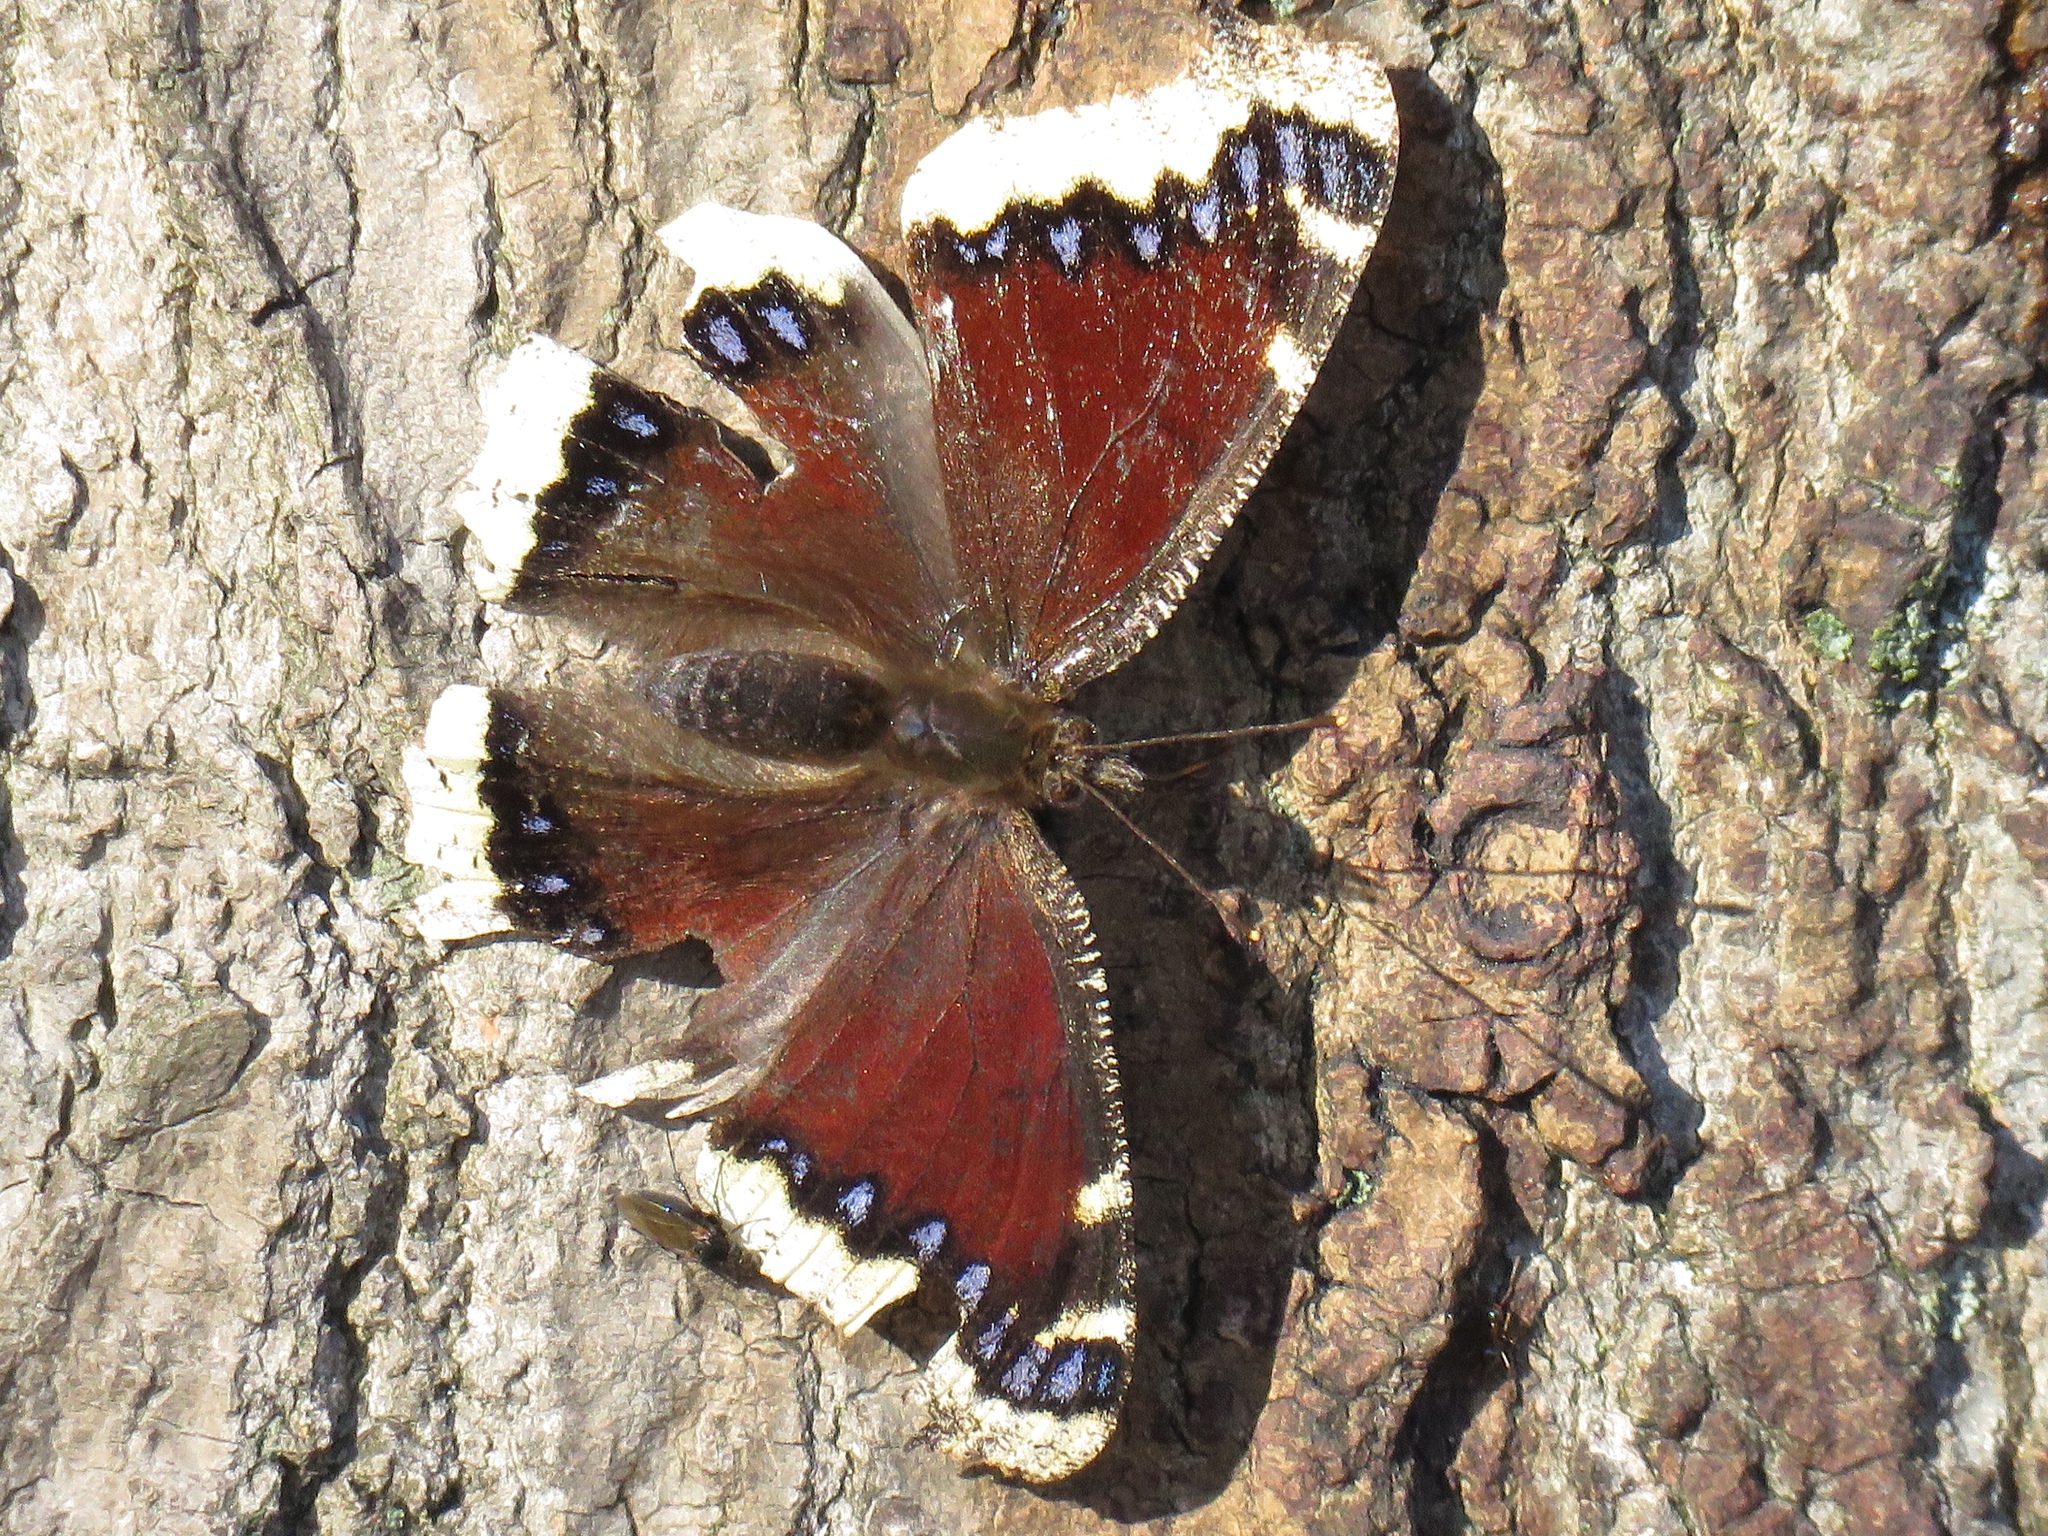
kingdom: Animalia
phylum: Arthropoda
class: Insecta
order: Lepidoptera
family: Nymphalidae
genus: Nymphalis
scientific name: Nymphalis antiopa
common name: Camberwell beauty
